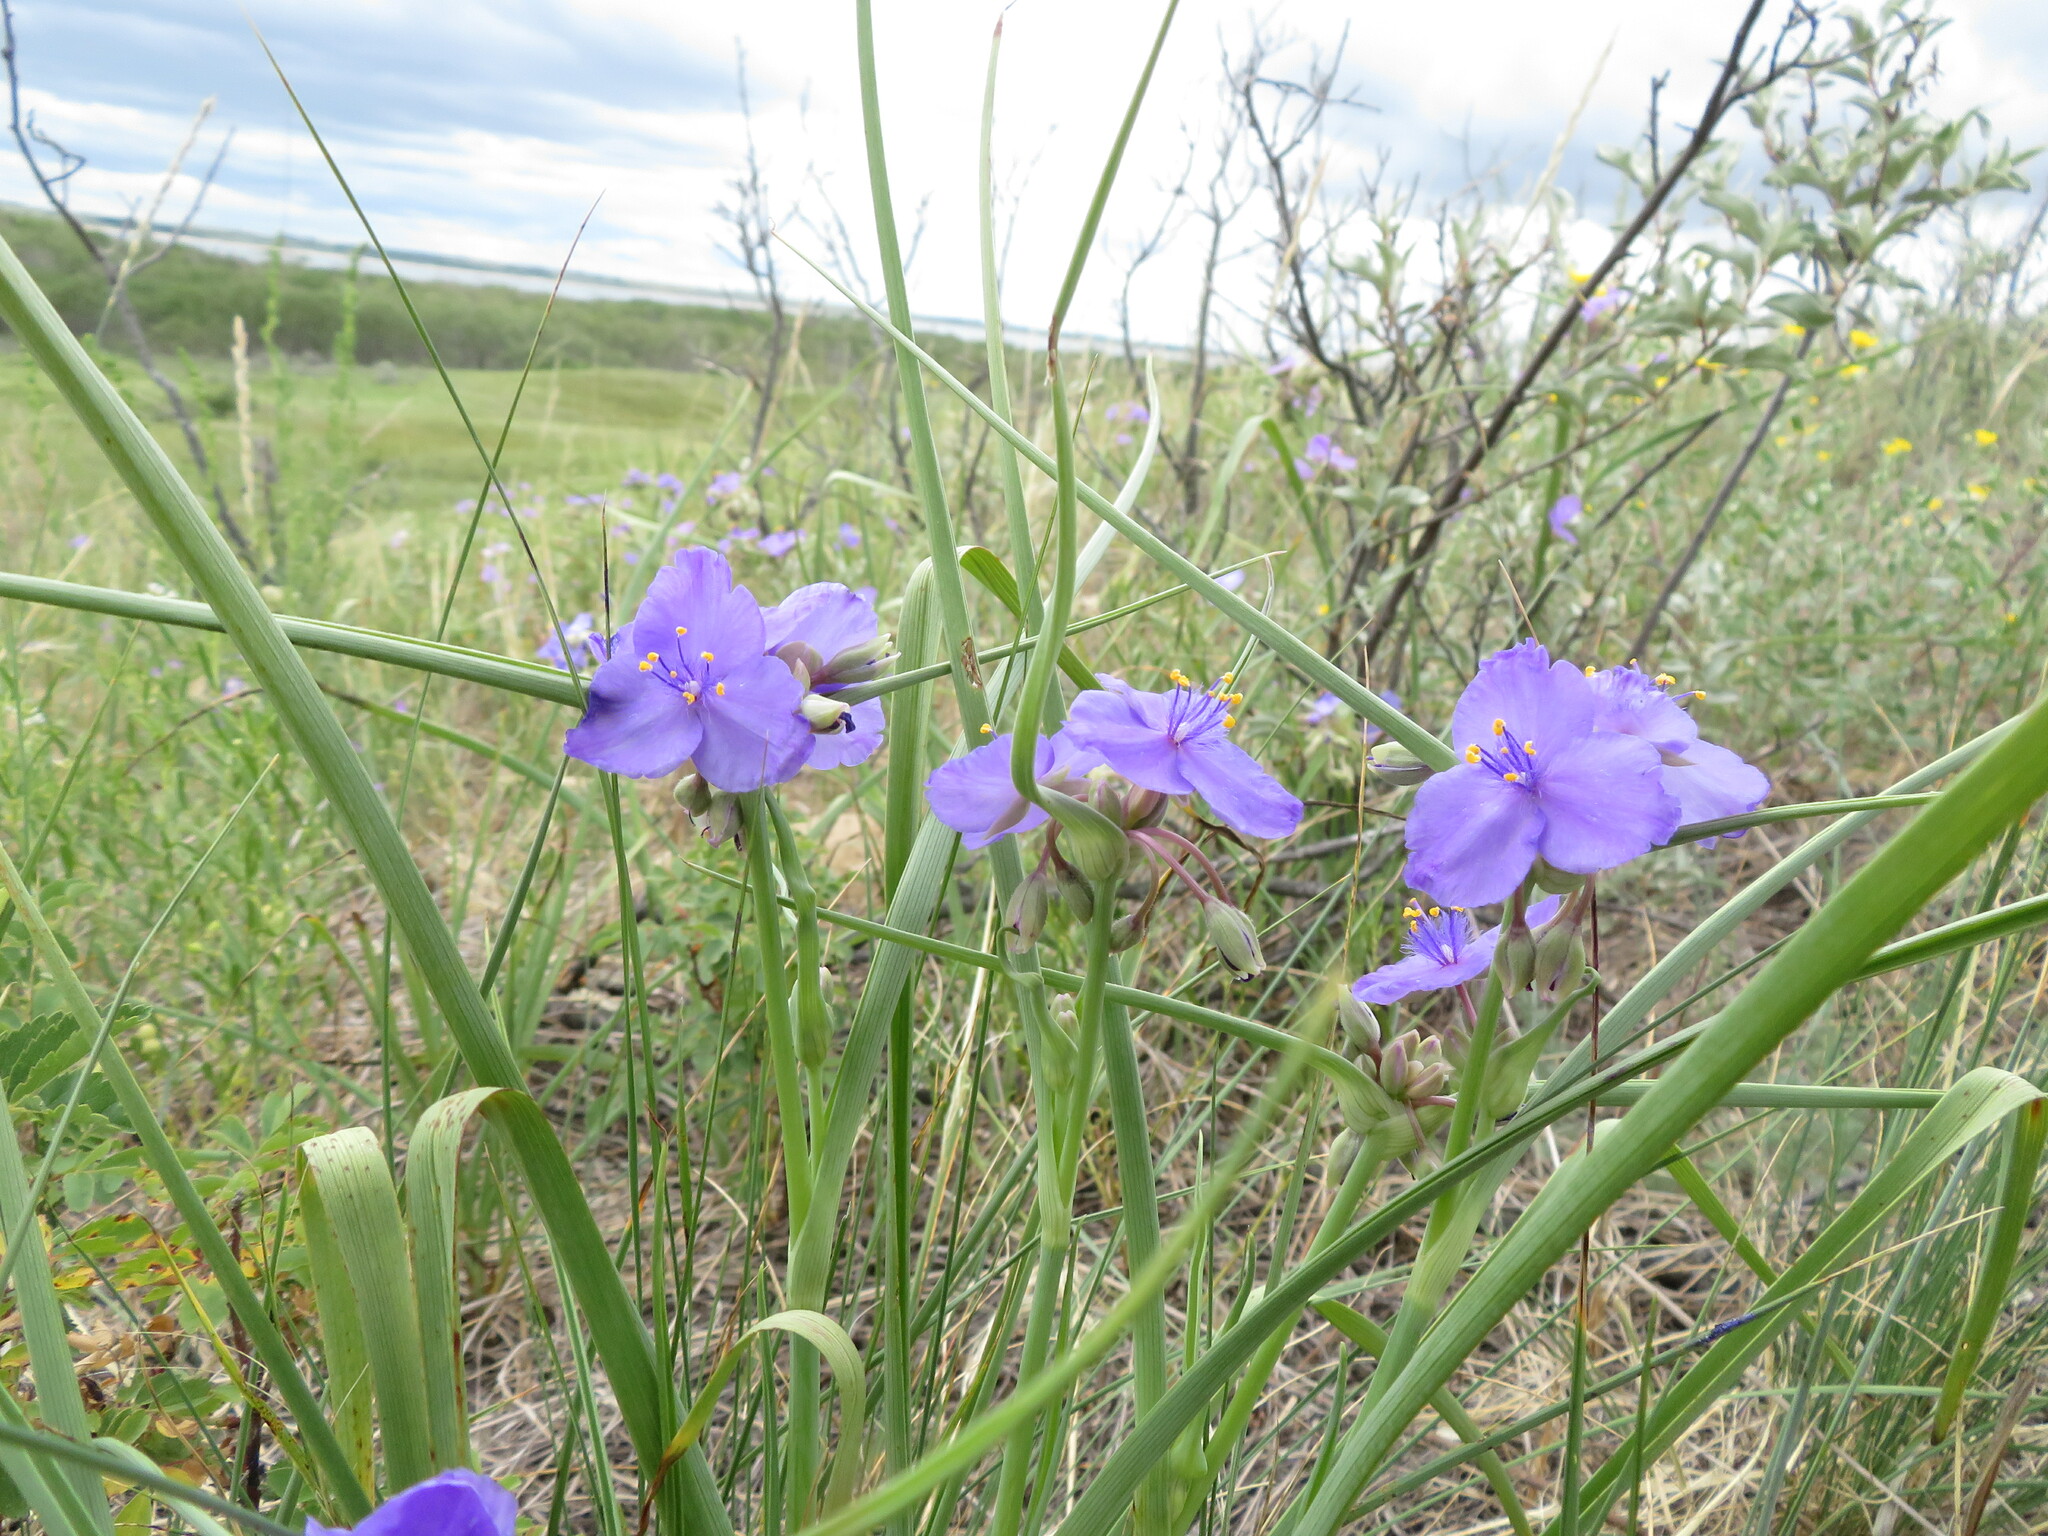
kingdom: Plantae
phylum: Tracheophyta
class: Liliopsida
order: Commelinales
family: Commelinaceae
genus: Tradescantia
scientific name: Tradescantia occidentalis
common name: Prairie spiderwort
